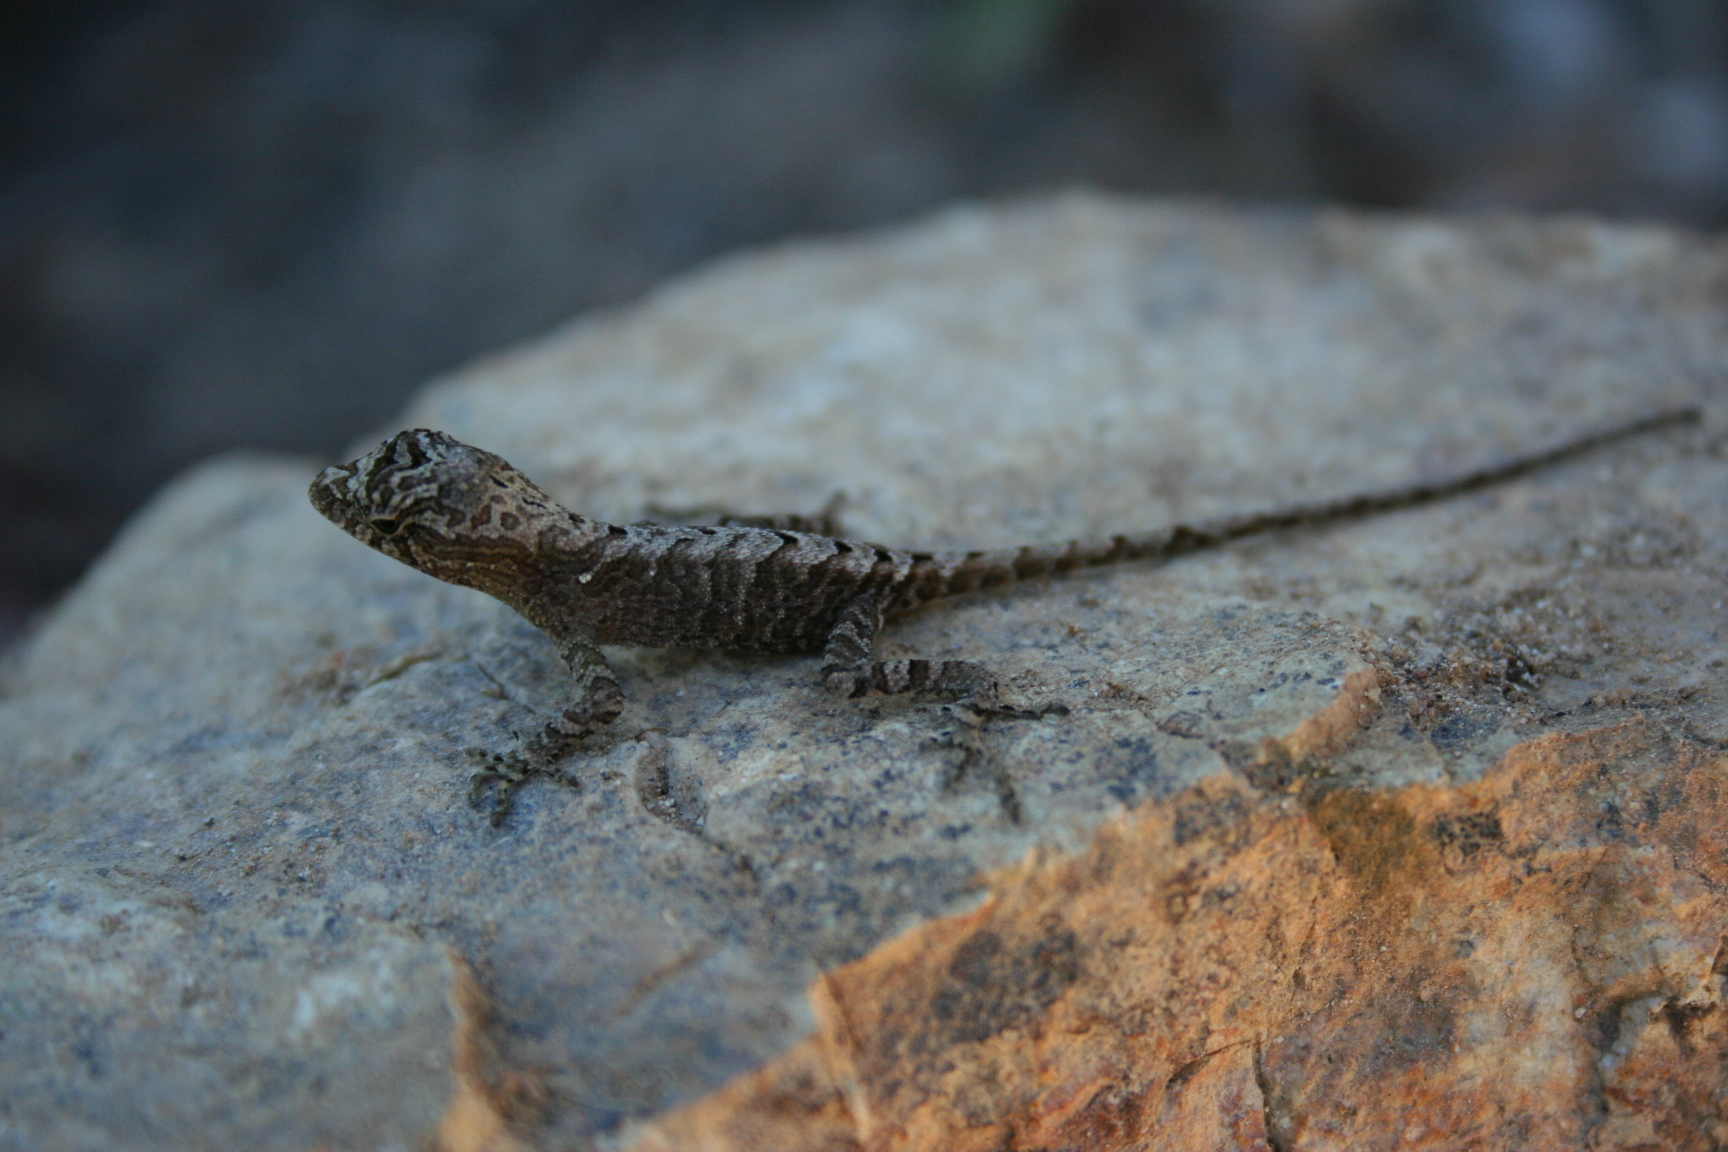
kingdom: Animalia
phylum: Chordata
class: Squamata
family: Dactyloidae
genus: Anolis
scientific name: Anolis sminthus
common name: Mouse anole
